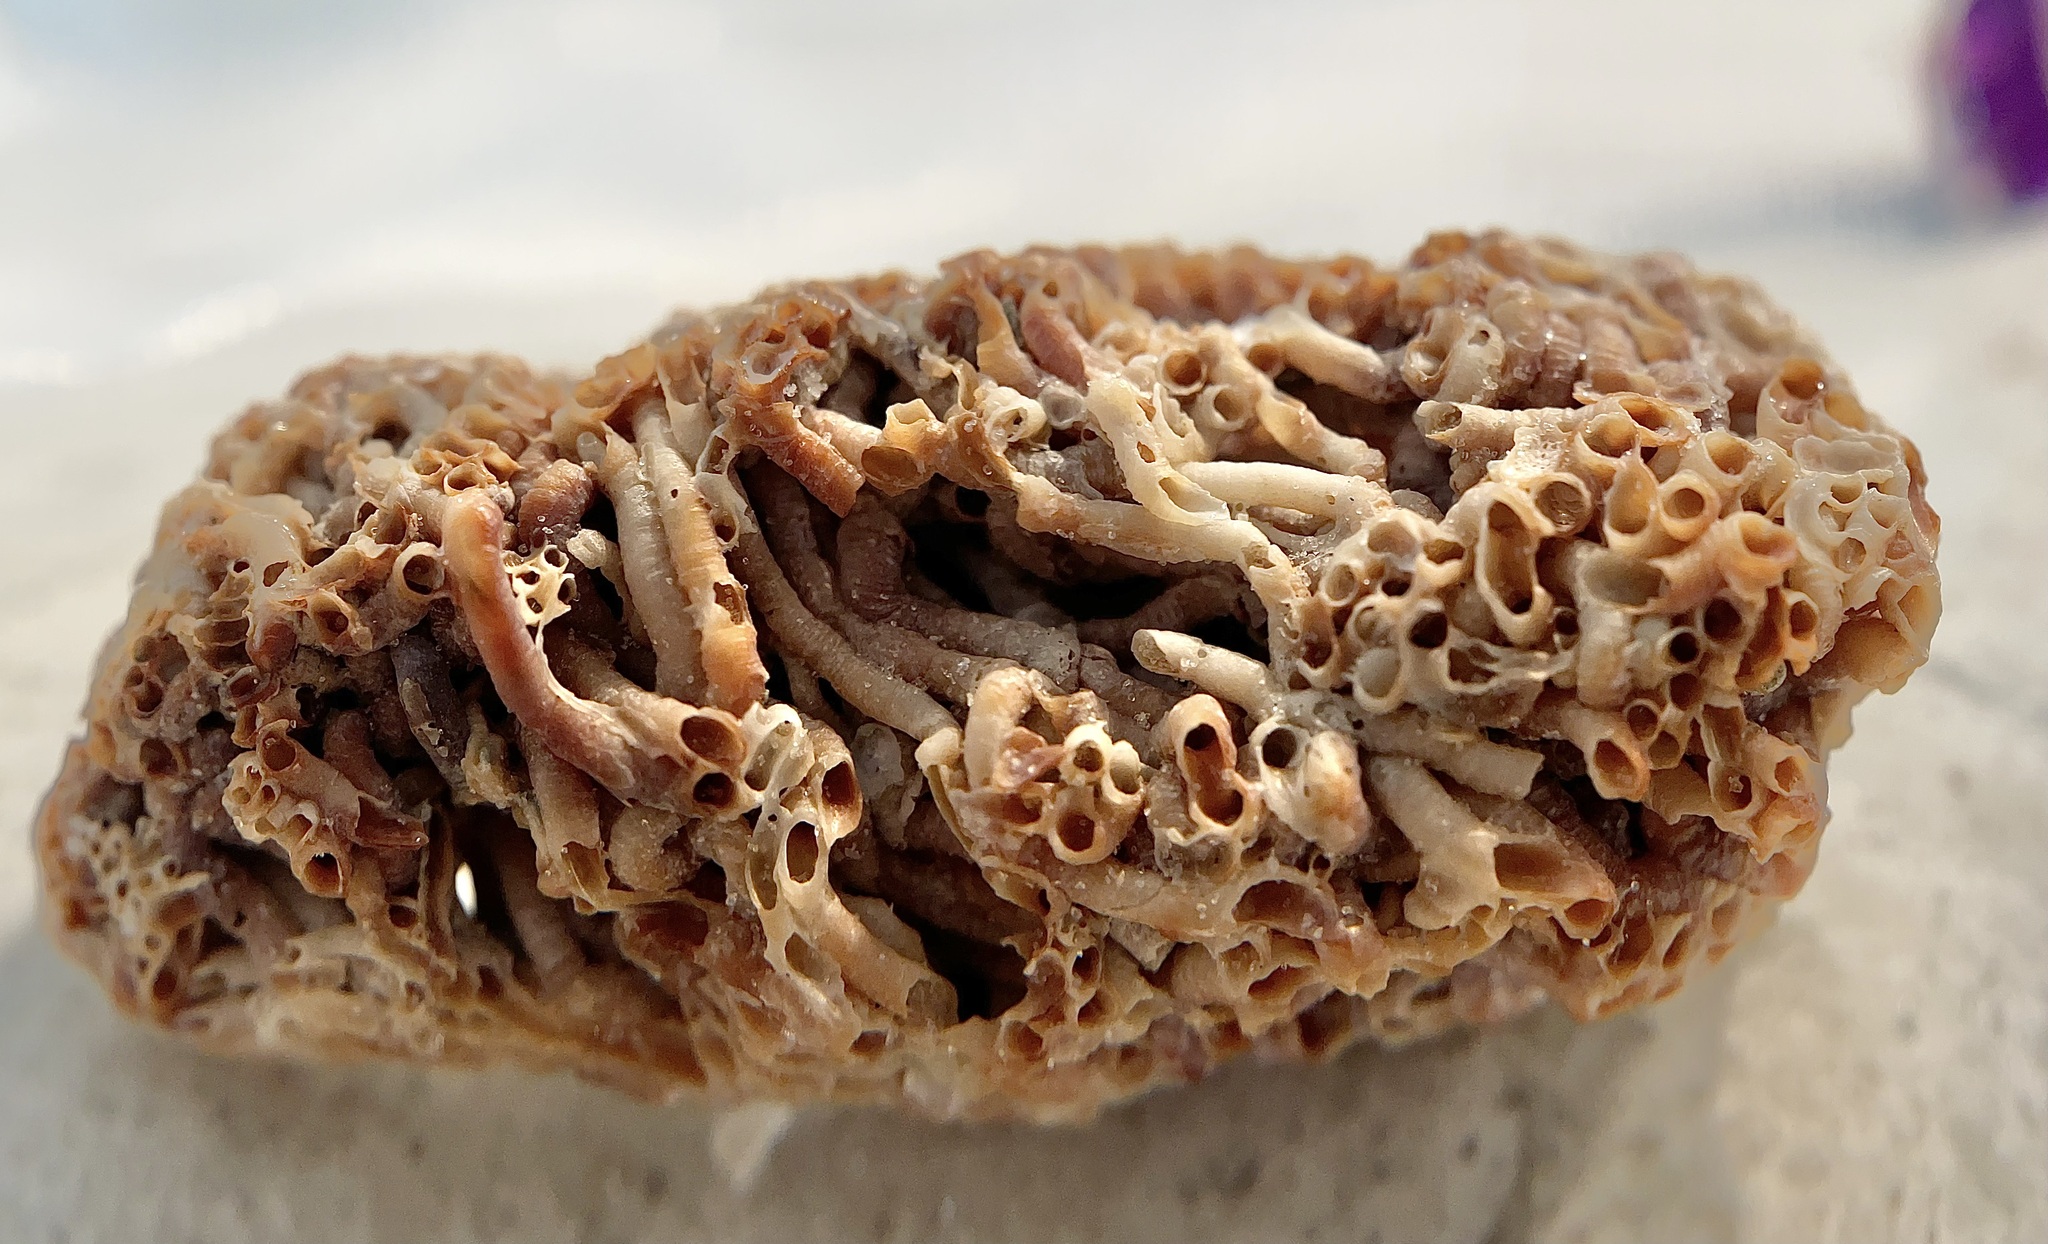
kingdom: Animalia
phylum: Mollusca
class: Gastropoda
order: Littorinimorpha
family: Vermetidae
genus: Petaloconchus
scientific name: Petaloconchus varians
